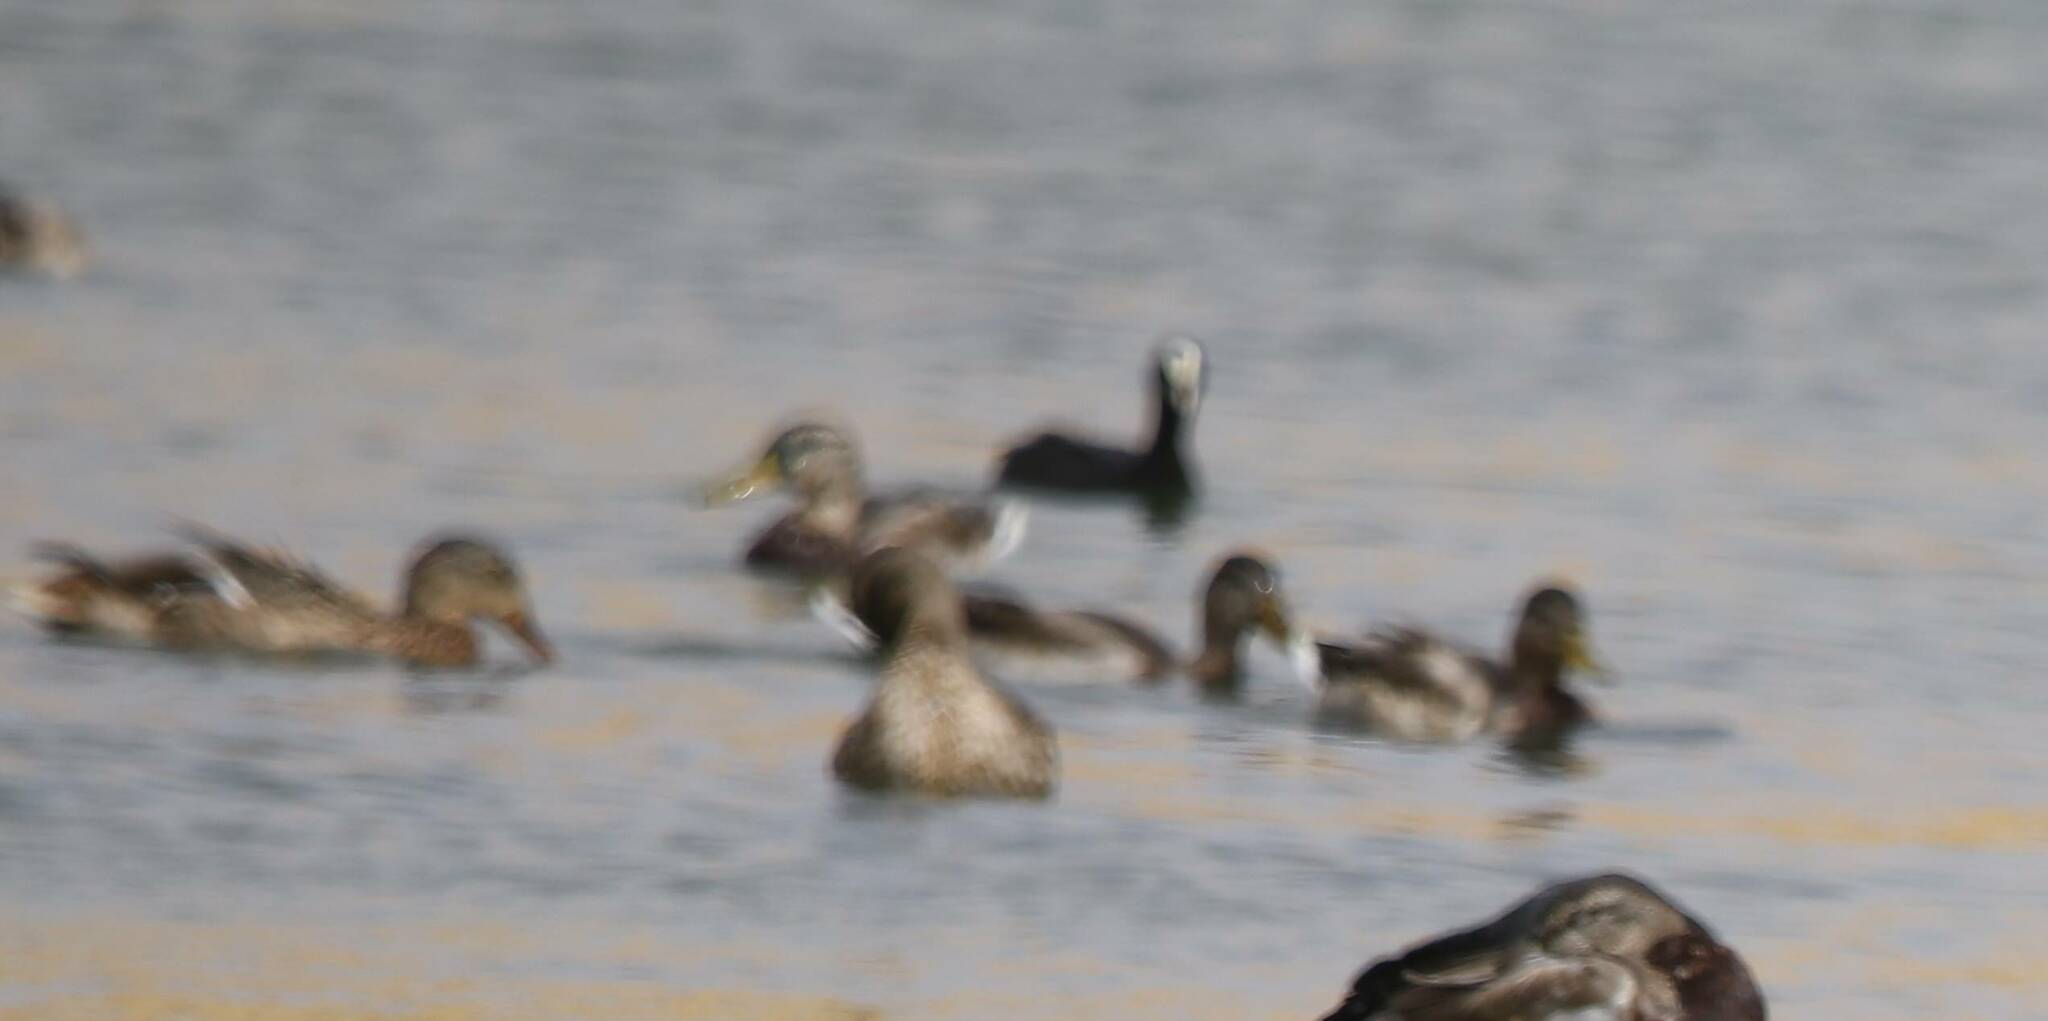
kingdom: Animalia
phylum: Chordata
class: Aves
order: Anseriformes
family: Anatidae
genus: Anas
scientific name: Anas platyrhynchos
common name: Mallard
